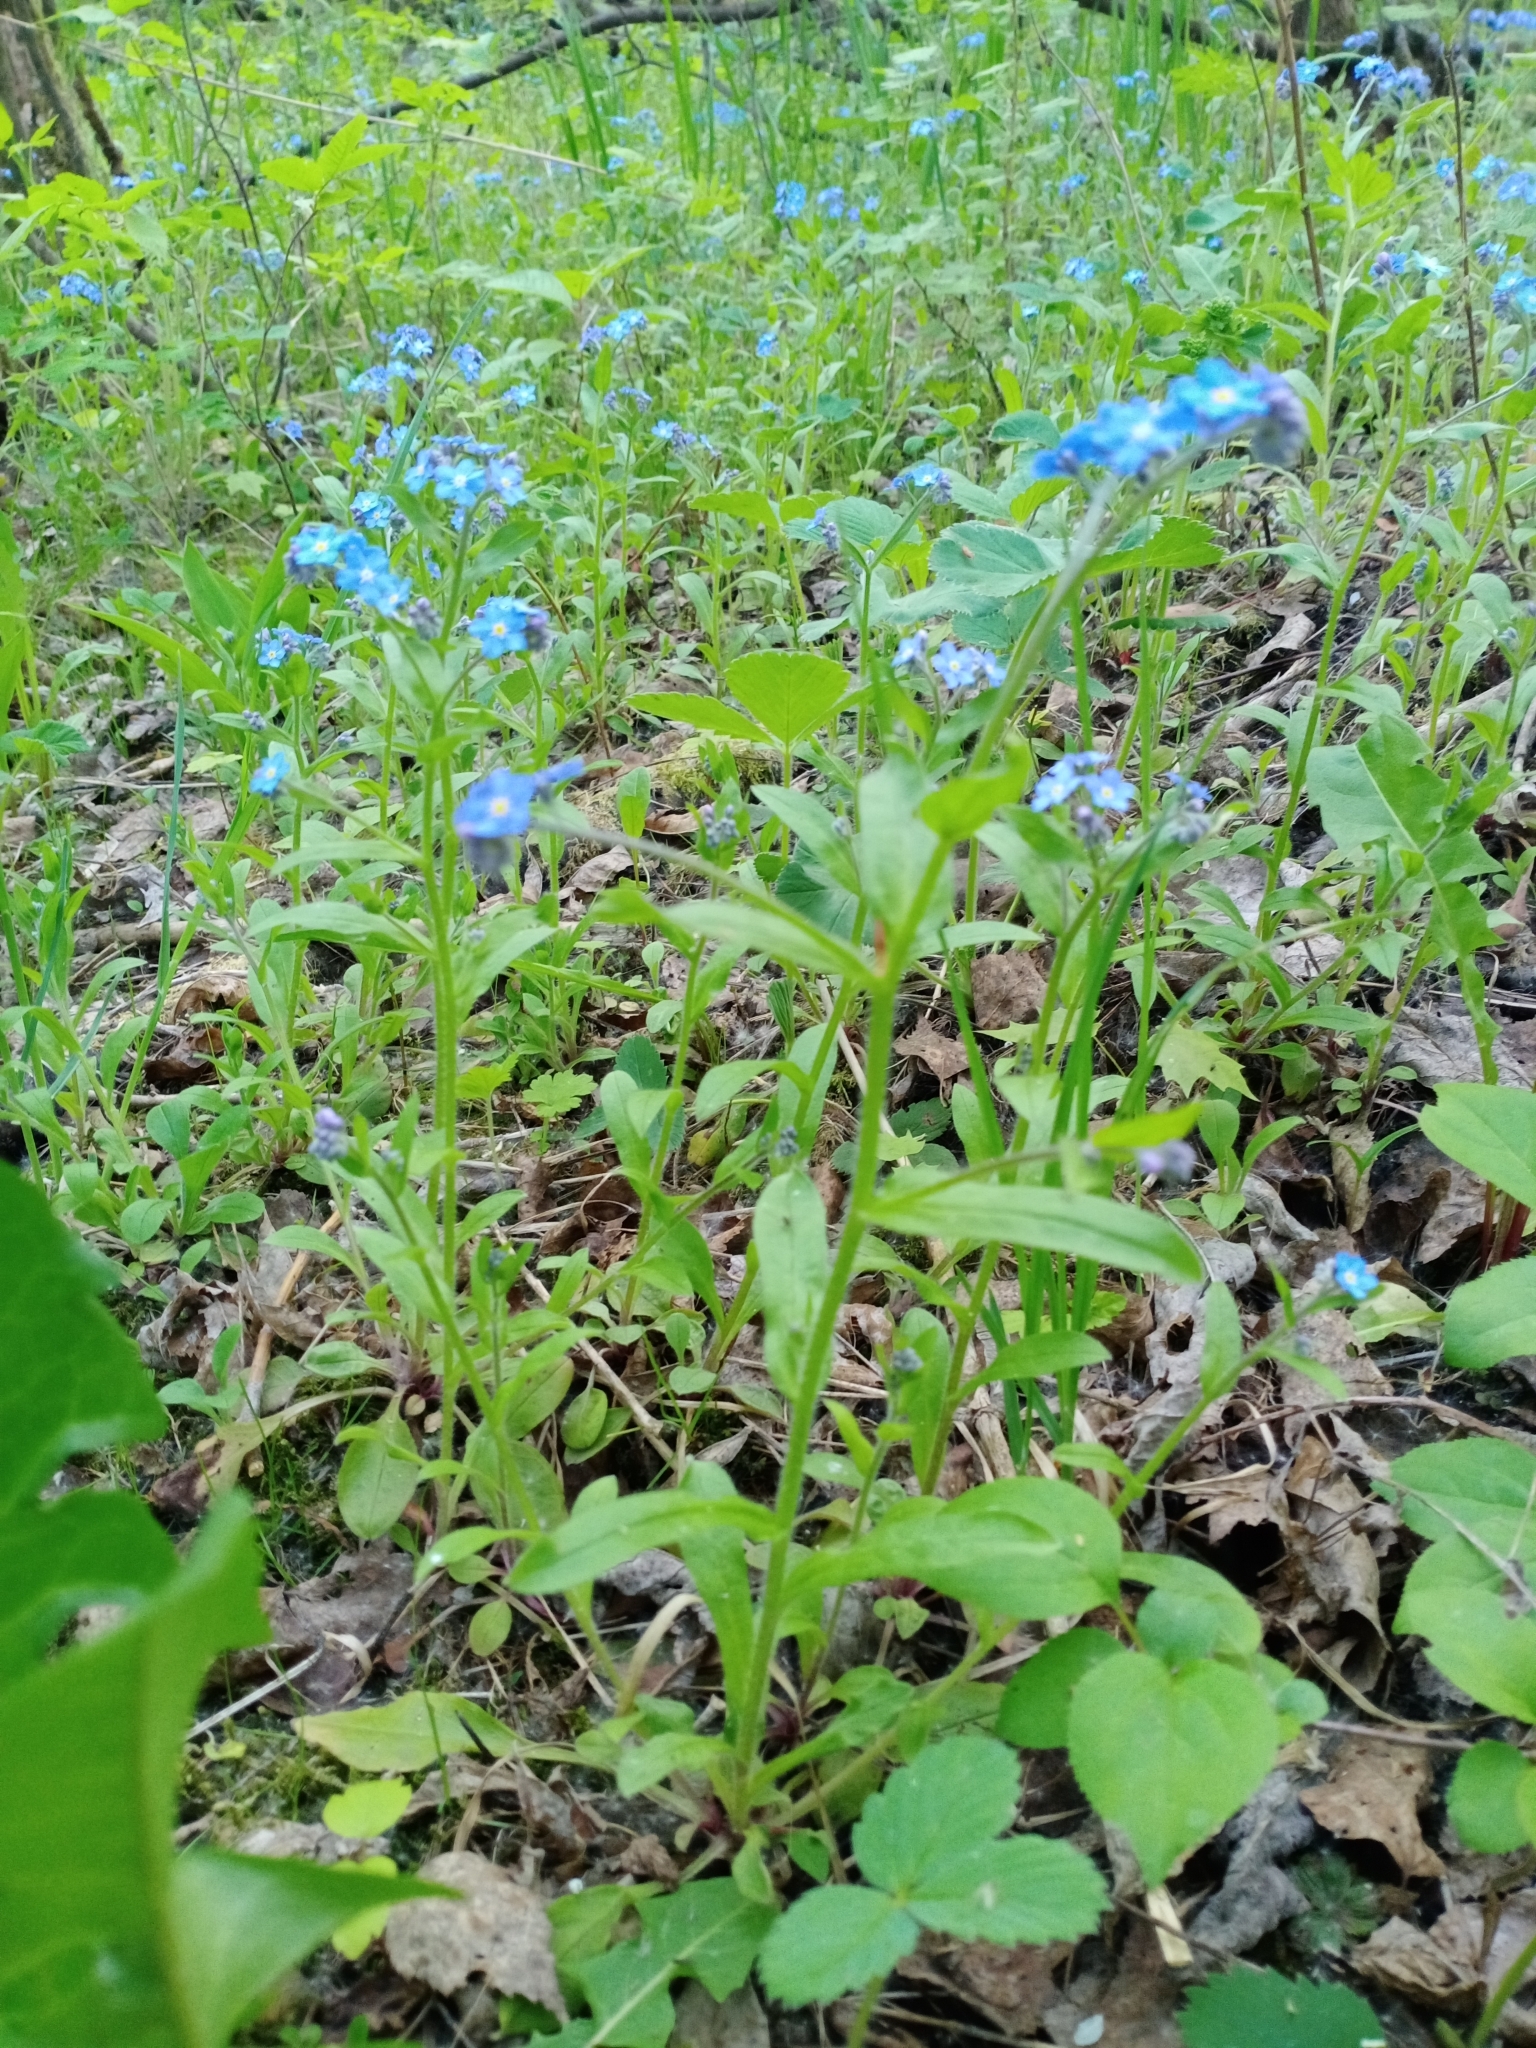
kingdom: Plantae
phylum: Tracheophyta
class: Magnoliopsida
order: Boraginales
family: Boraginaceae
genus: Myosotis
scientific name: Myosotis sylvatica
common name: Wood forget-me-not
